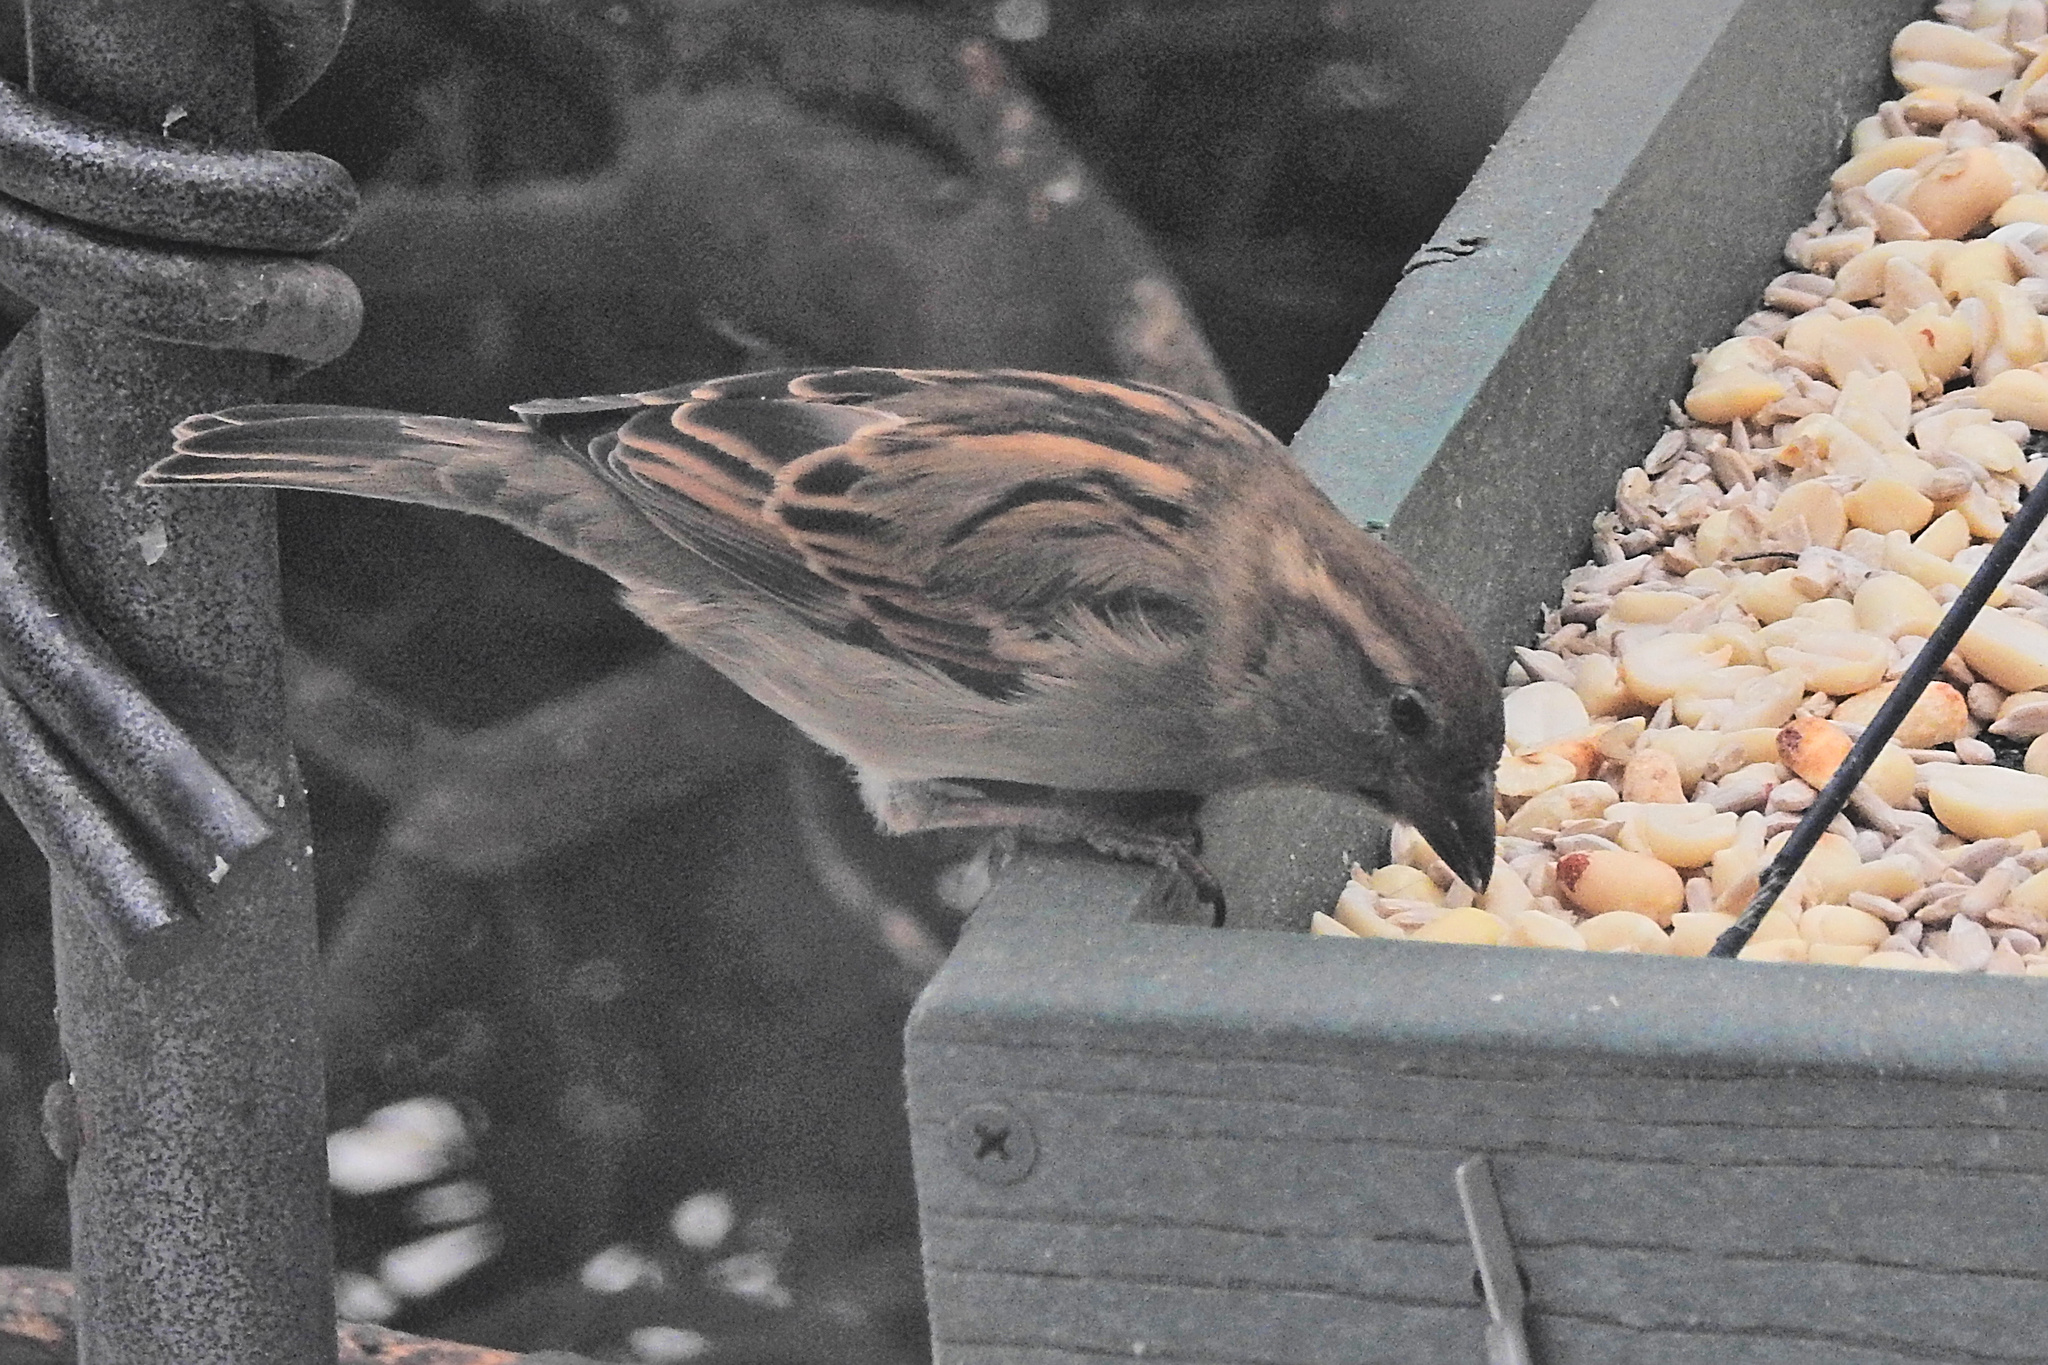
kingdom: Animalia
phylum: Chordata
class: Aves
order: Passeriformes
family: Passeridae
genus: Passer
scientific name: Passer domesticus
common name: House sparrow
